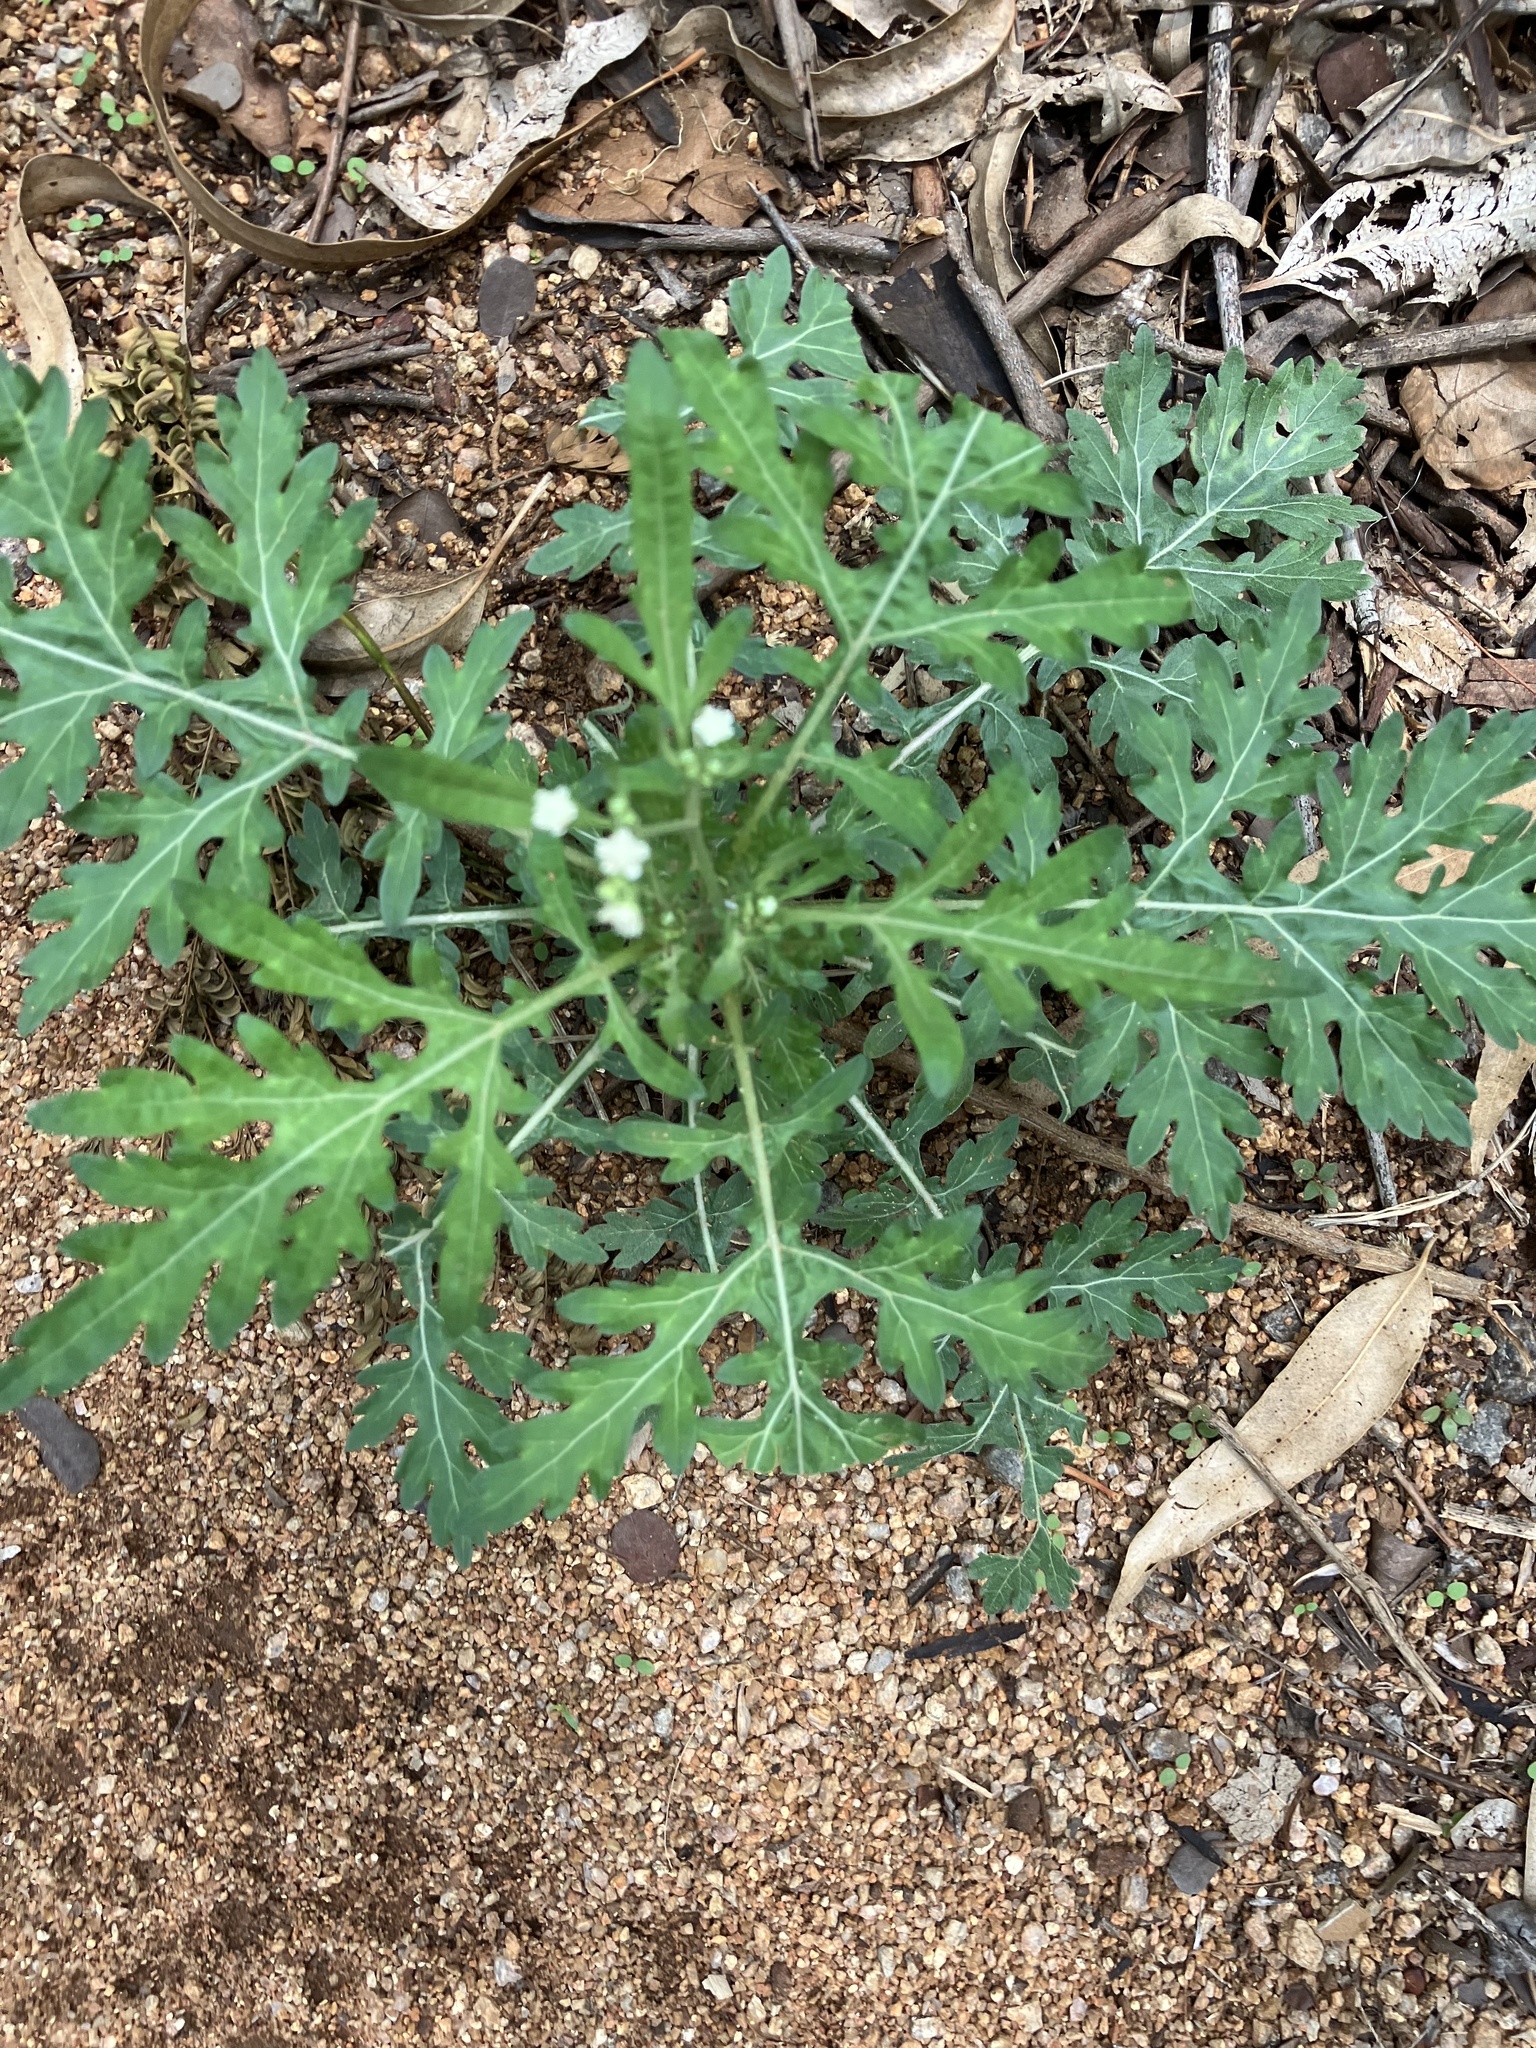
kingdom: Plantae
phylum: Tracheophyta
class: Magnoliopsida
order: Asterales
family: Asteraceae
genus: Parthenium
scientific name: Parthenium hysterophorus
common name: Santa maria feverfew
